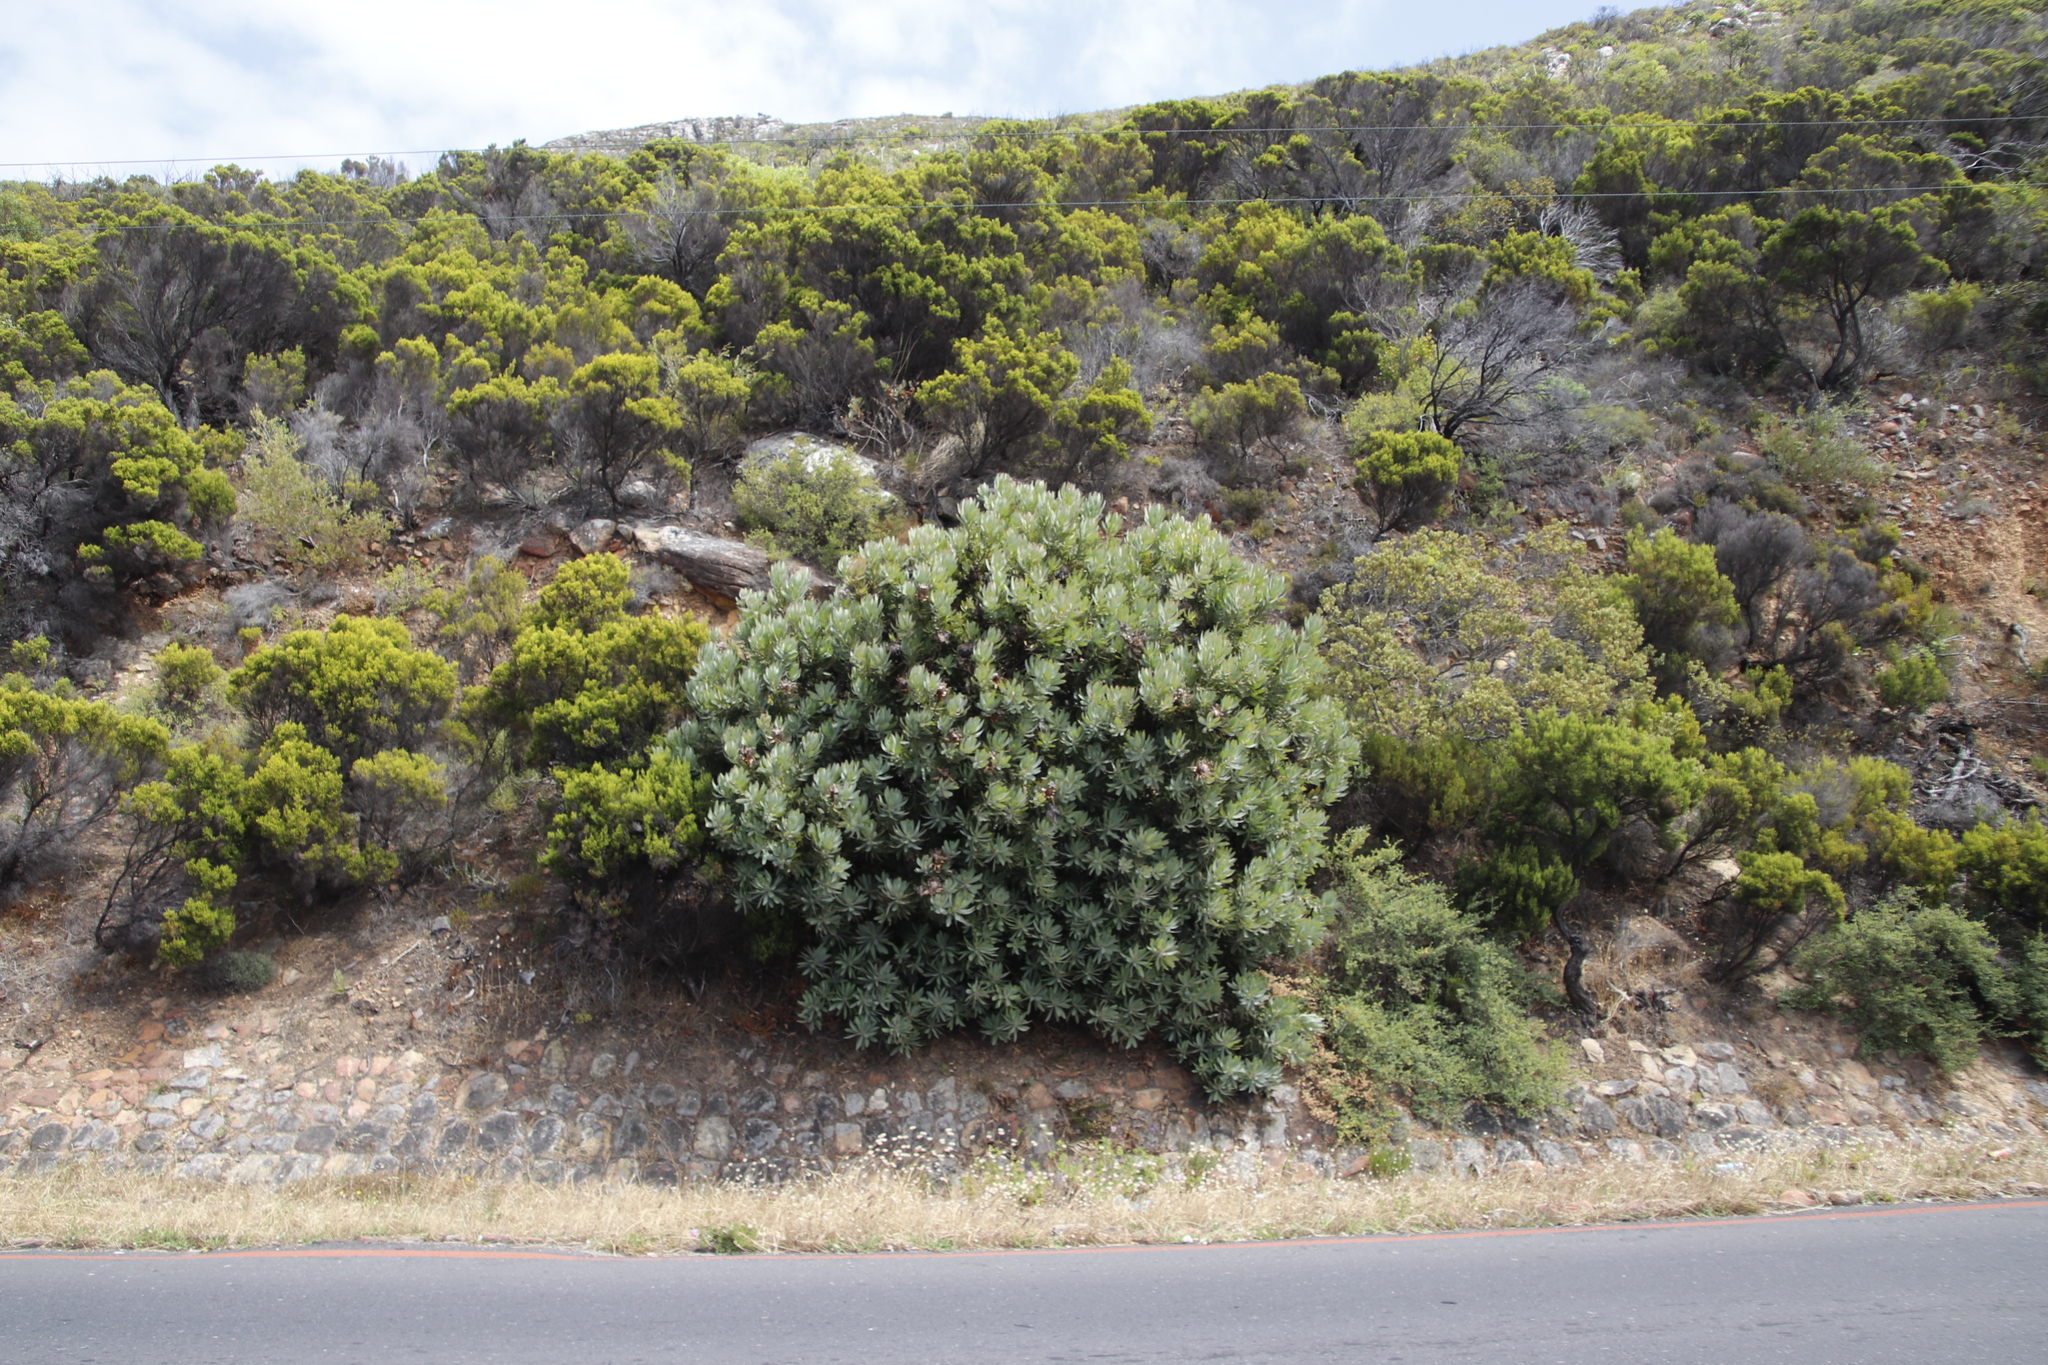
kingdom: Plantae
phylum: Tracheophyta
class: Magnoliopsida
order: Proteales
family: Proteaceae
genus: Protea
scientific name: Protea laurifolia
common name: Grey-leaf sugarbsh
